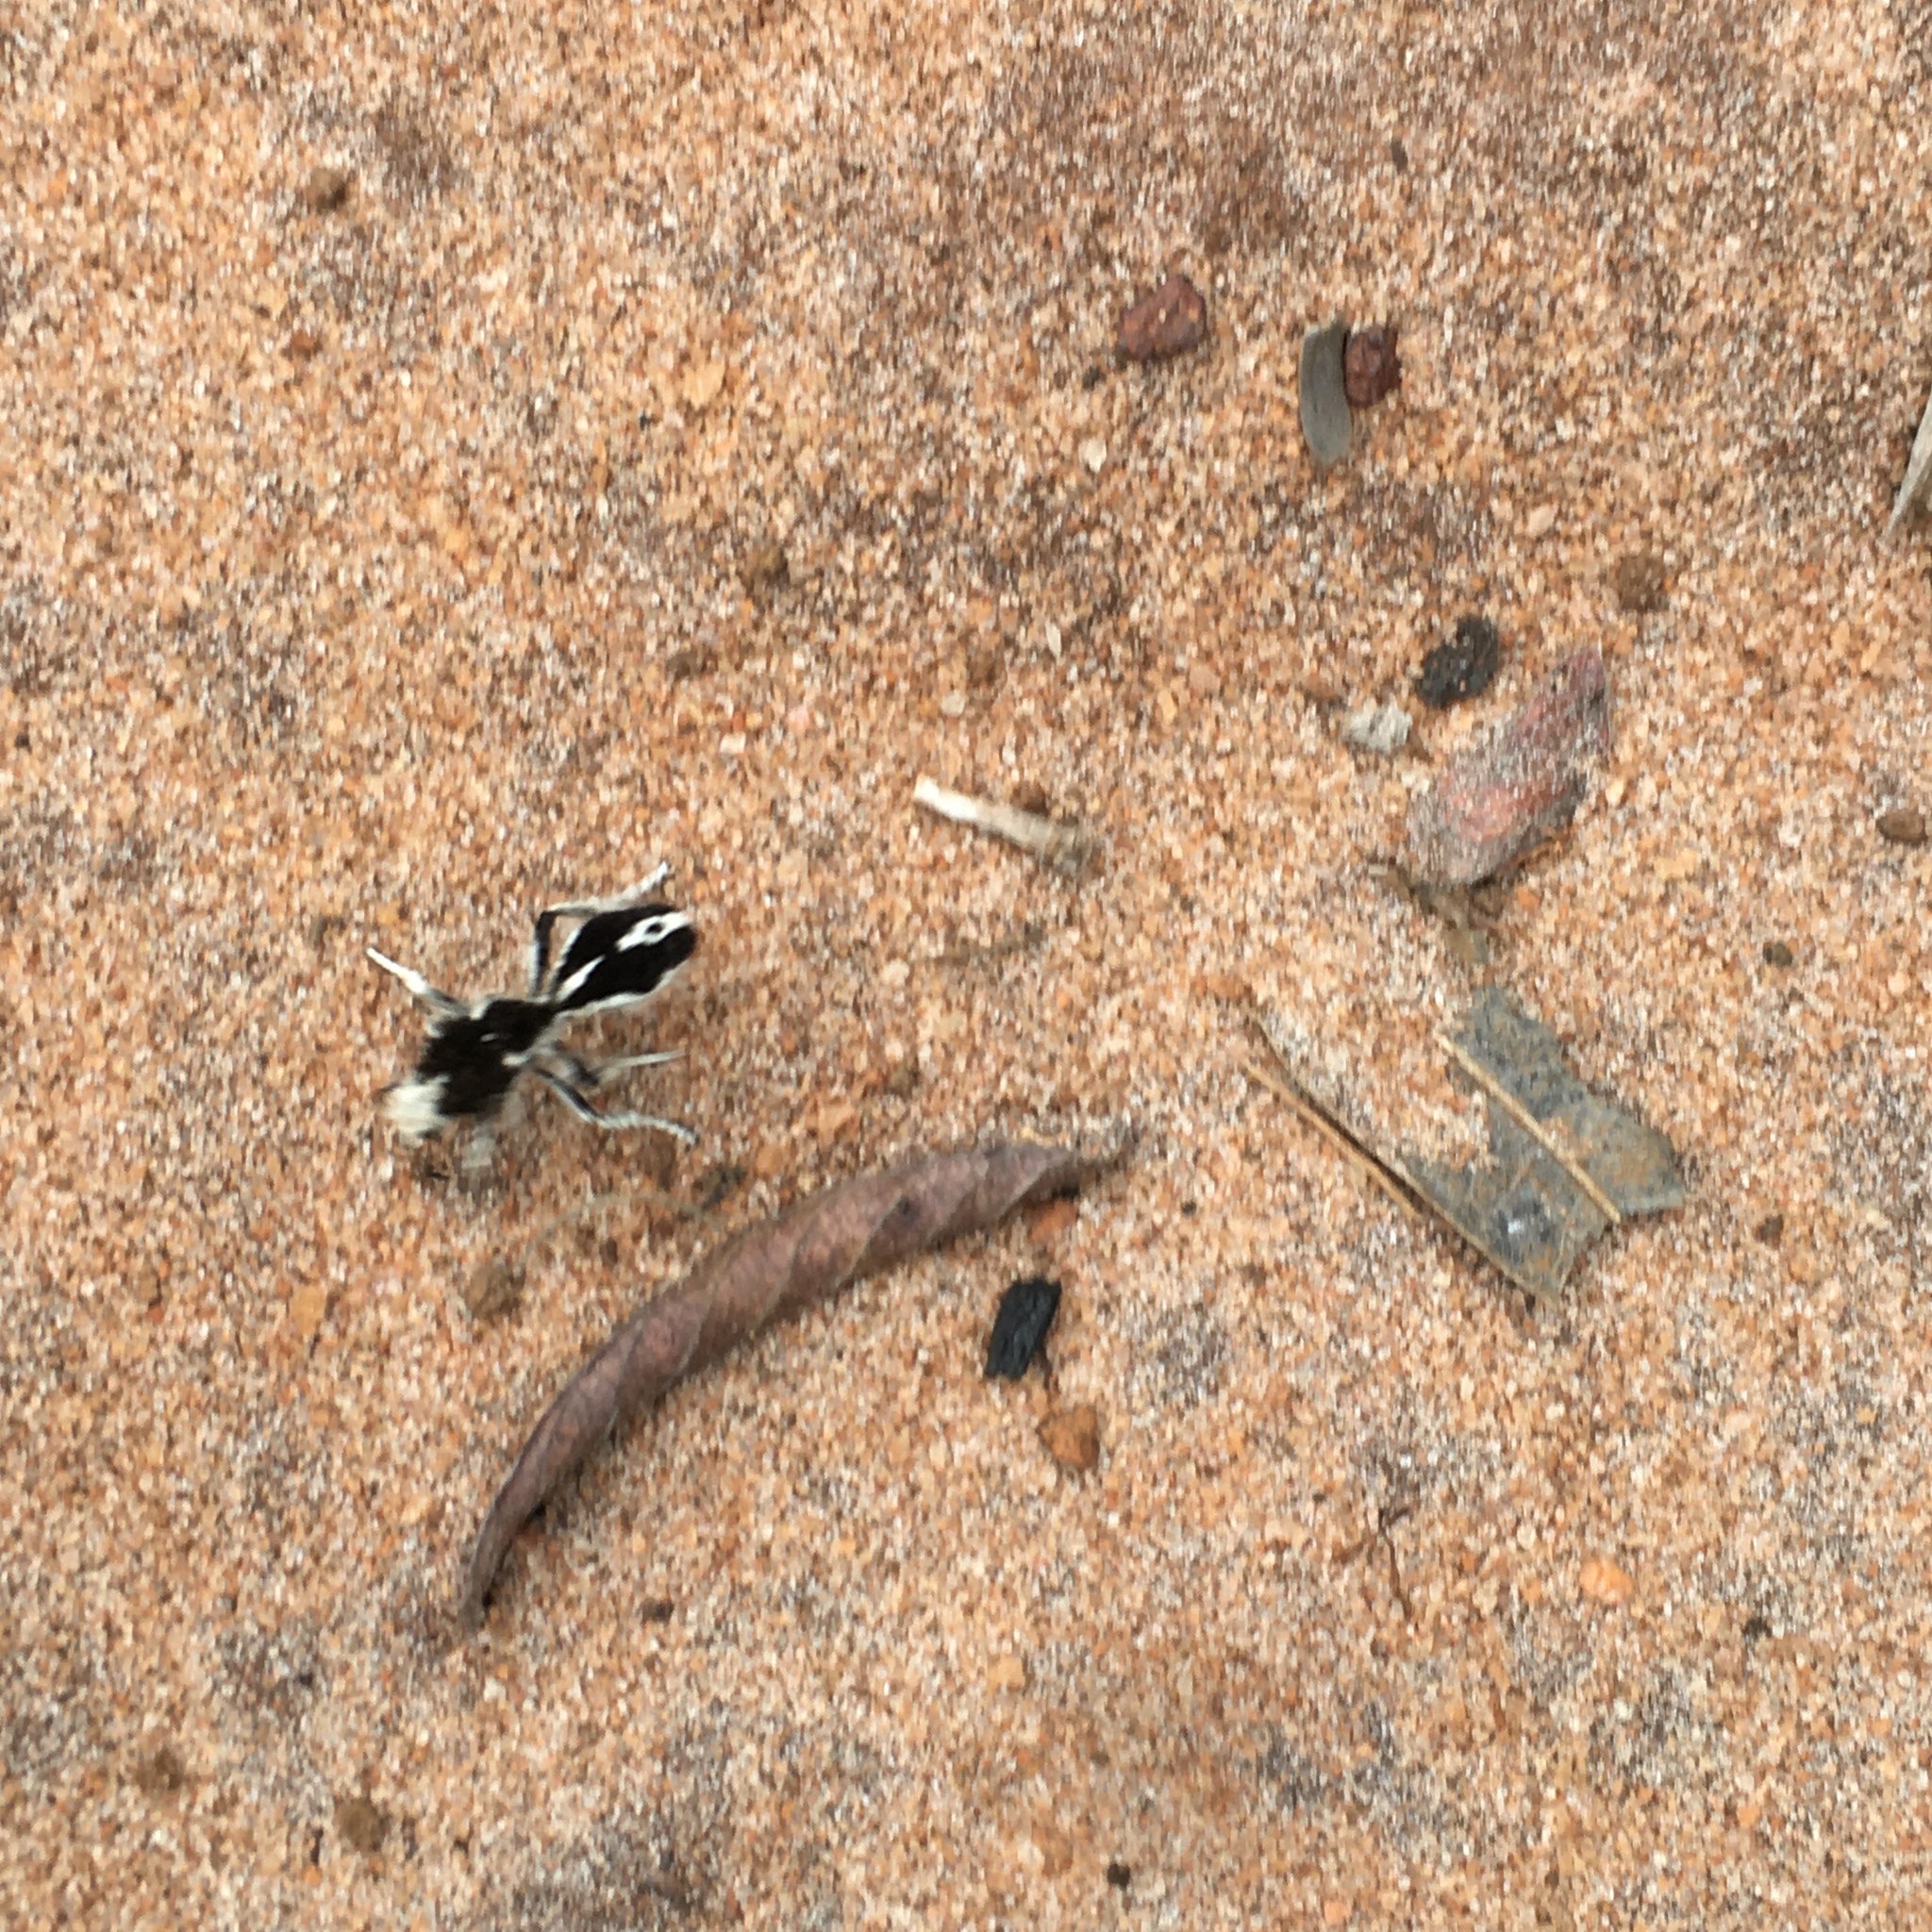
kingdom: Animalia
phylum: Arthropoda
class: Insecta
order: Hymenoptera
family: Mutillidae
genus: Leucospilomutilla
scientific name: Leucospilomutilla cerbera
